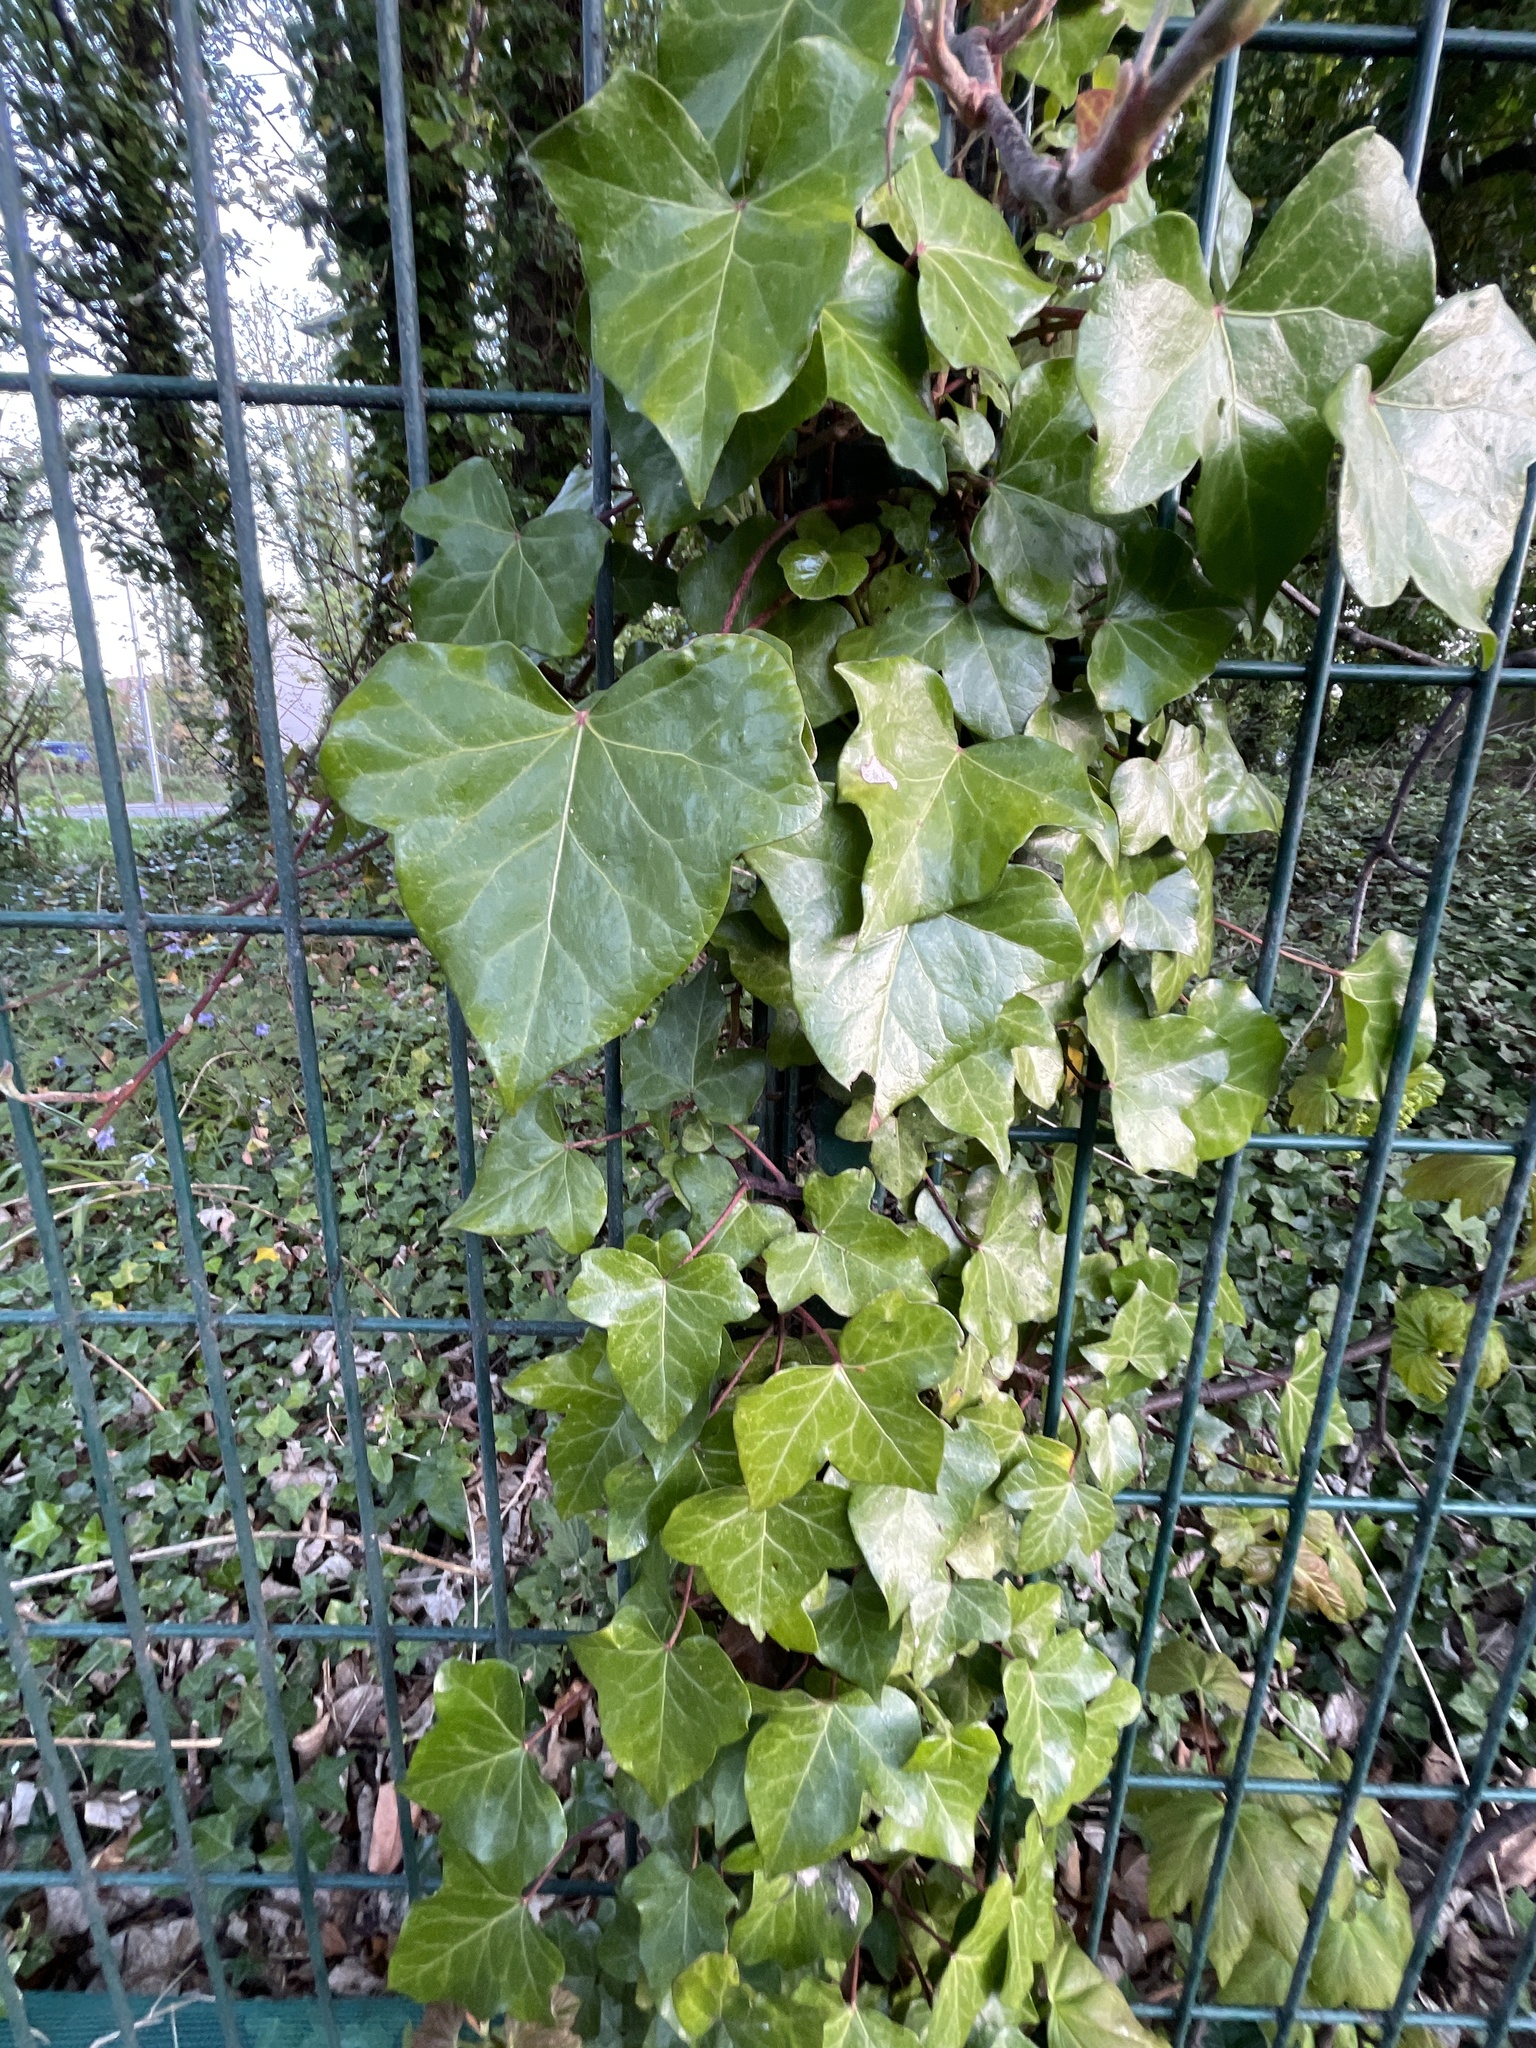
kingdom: Plantae
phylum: Tracheophyta
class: Magnoliopsida
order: Apiales
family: Araliaceae
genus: Hedera
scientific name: Hedera helix
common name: Ivy
